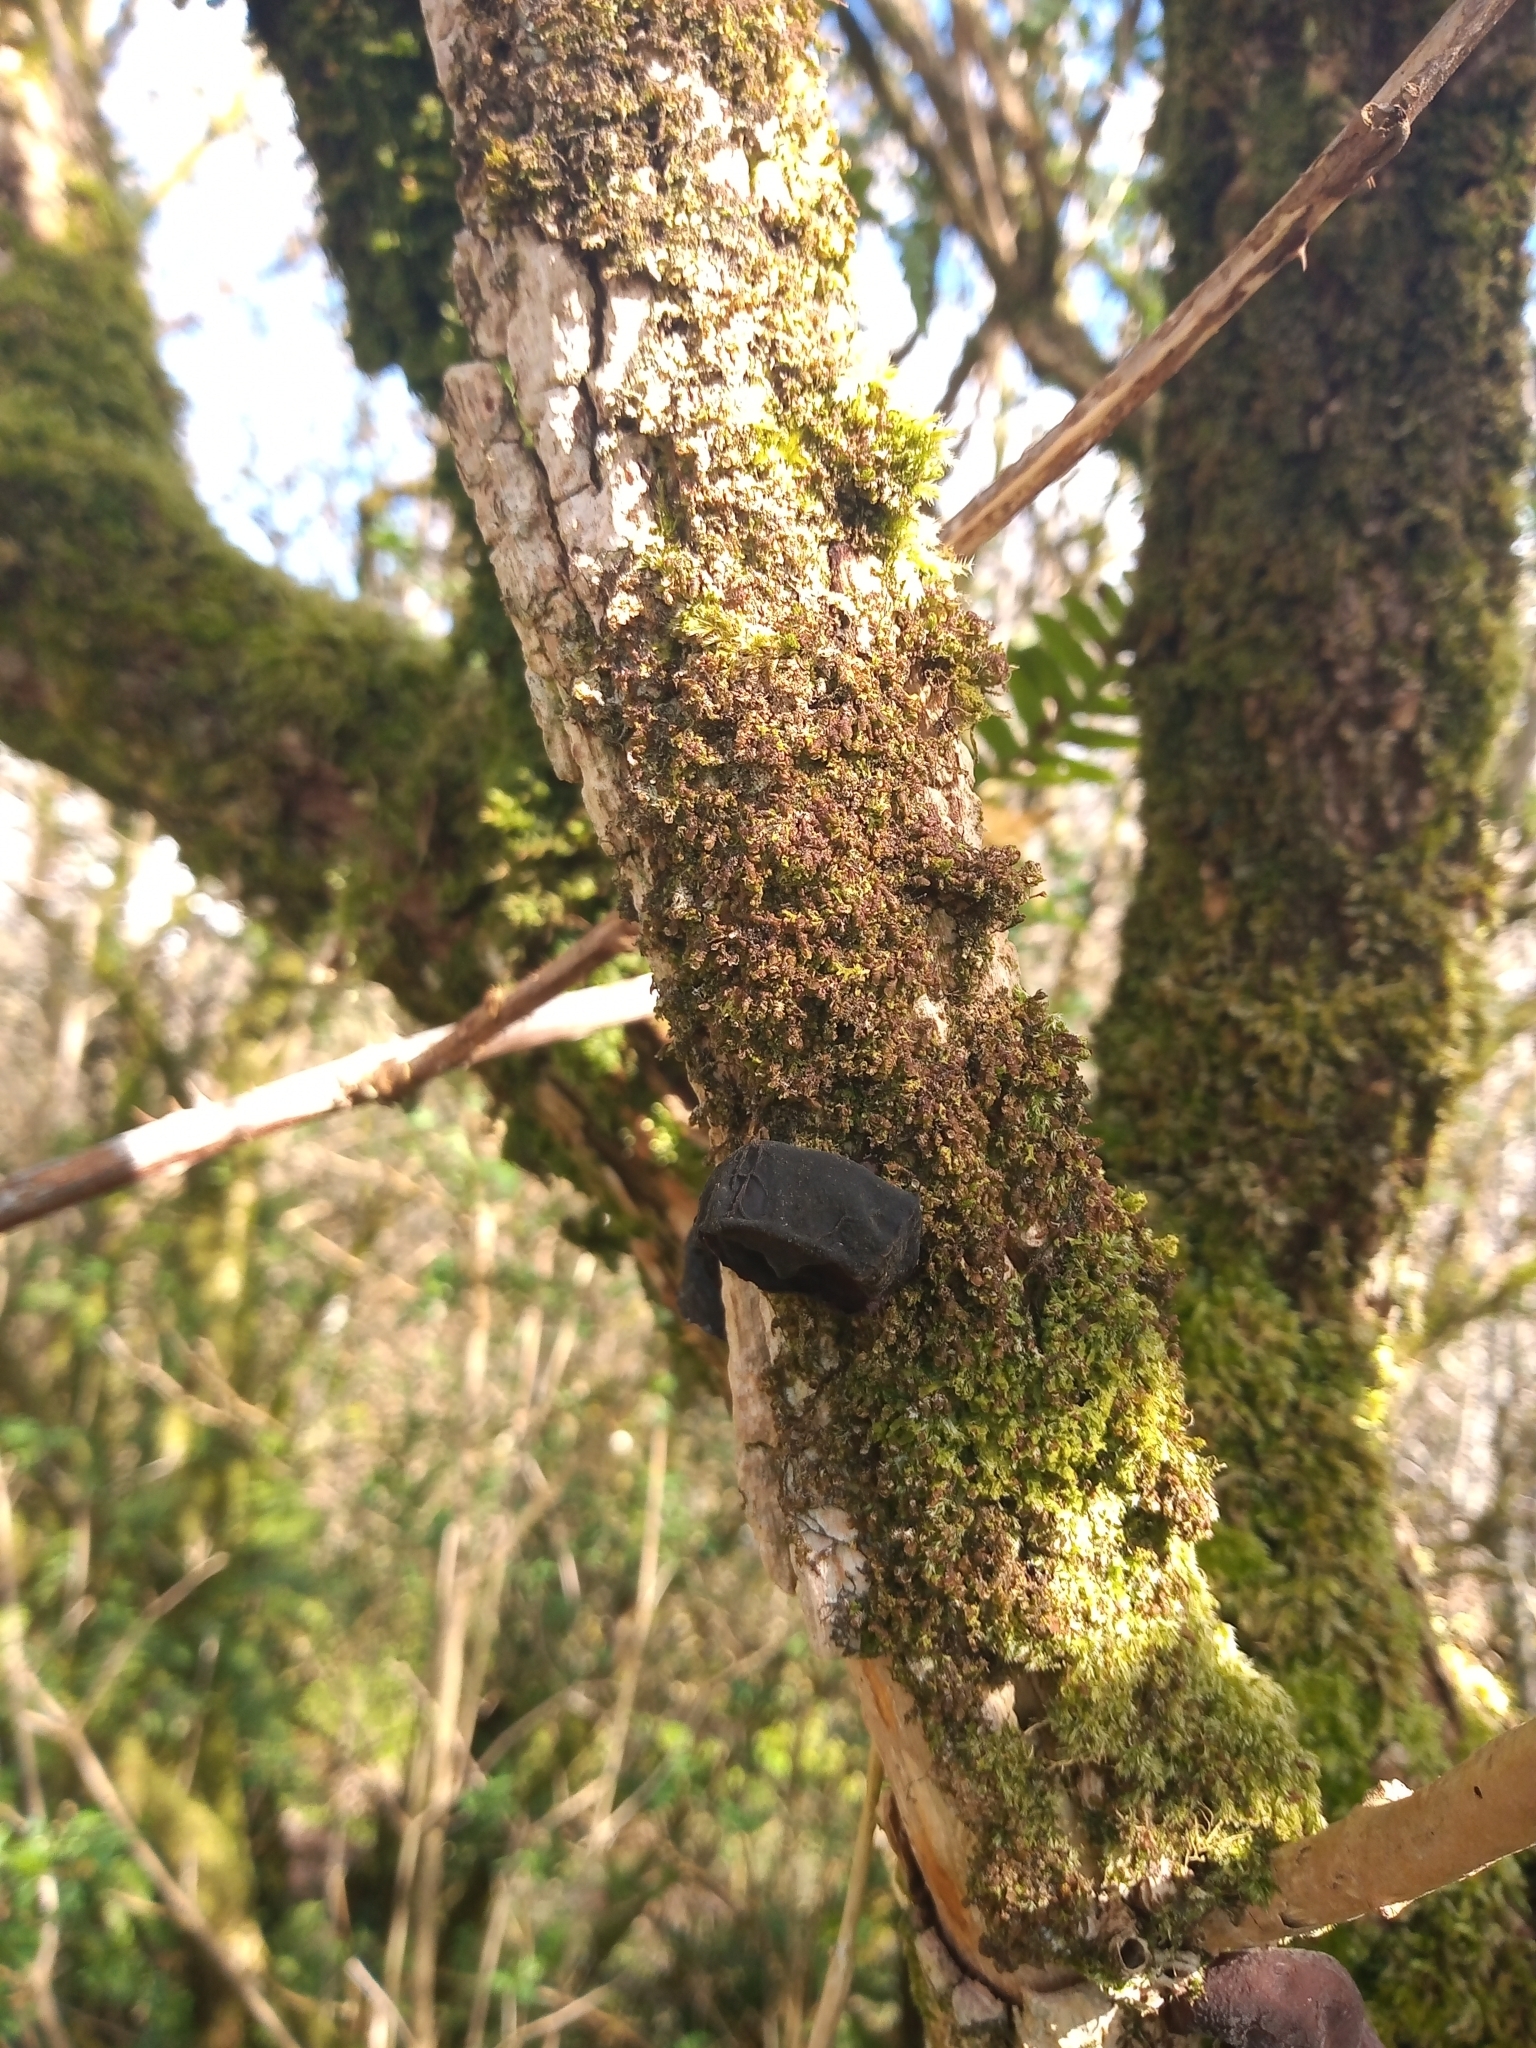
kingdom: Fungi
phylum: Basidiomycota
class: Agaricomycetes
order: Auriculariales
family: Auriculariaceae
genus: Auricularia
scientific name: Auricularia auricula-judae
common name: Jelly ear
